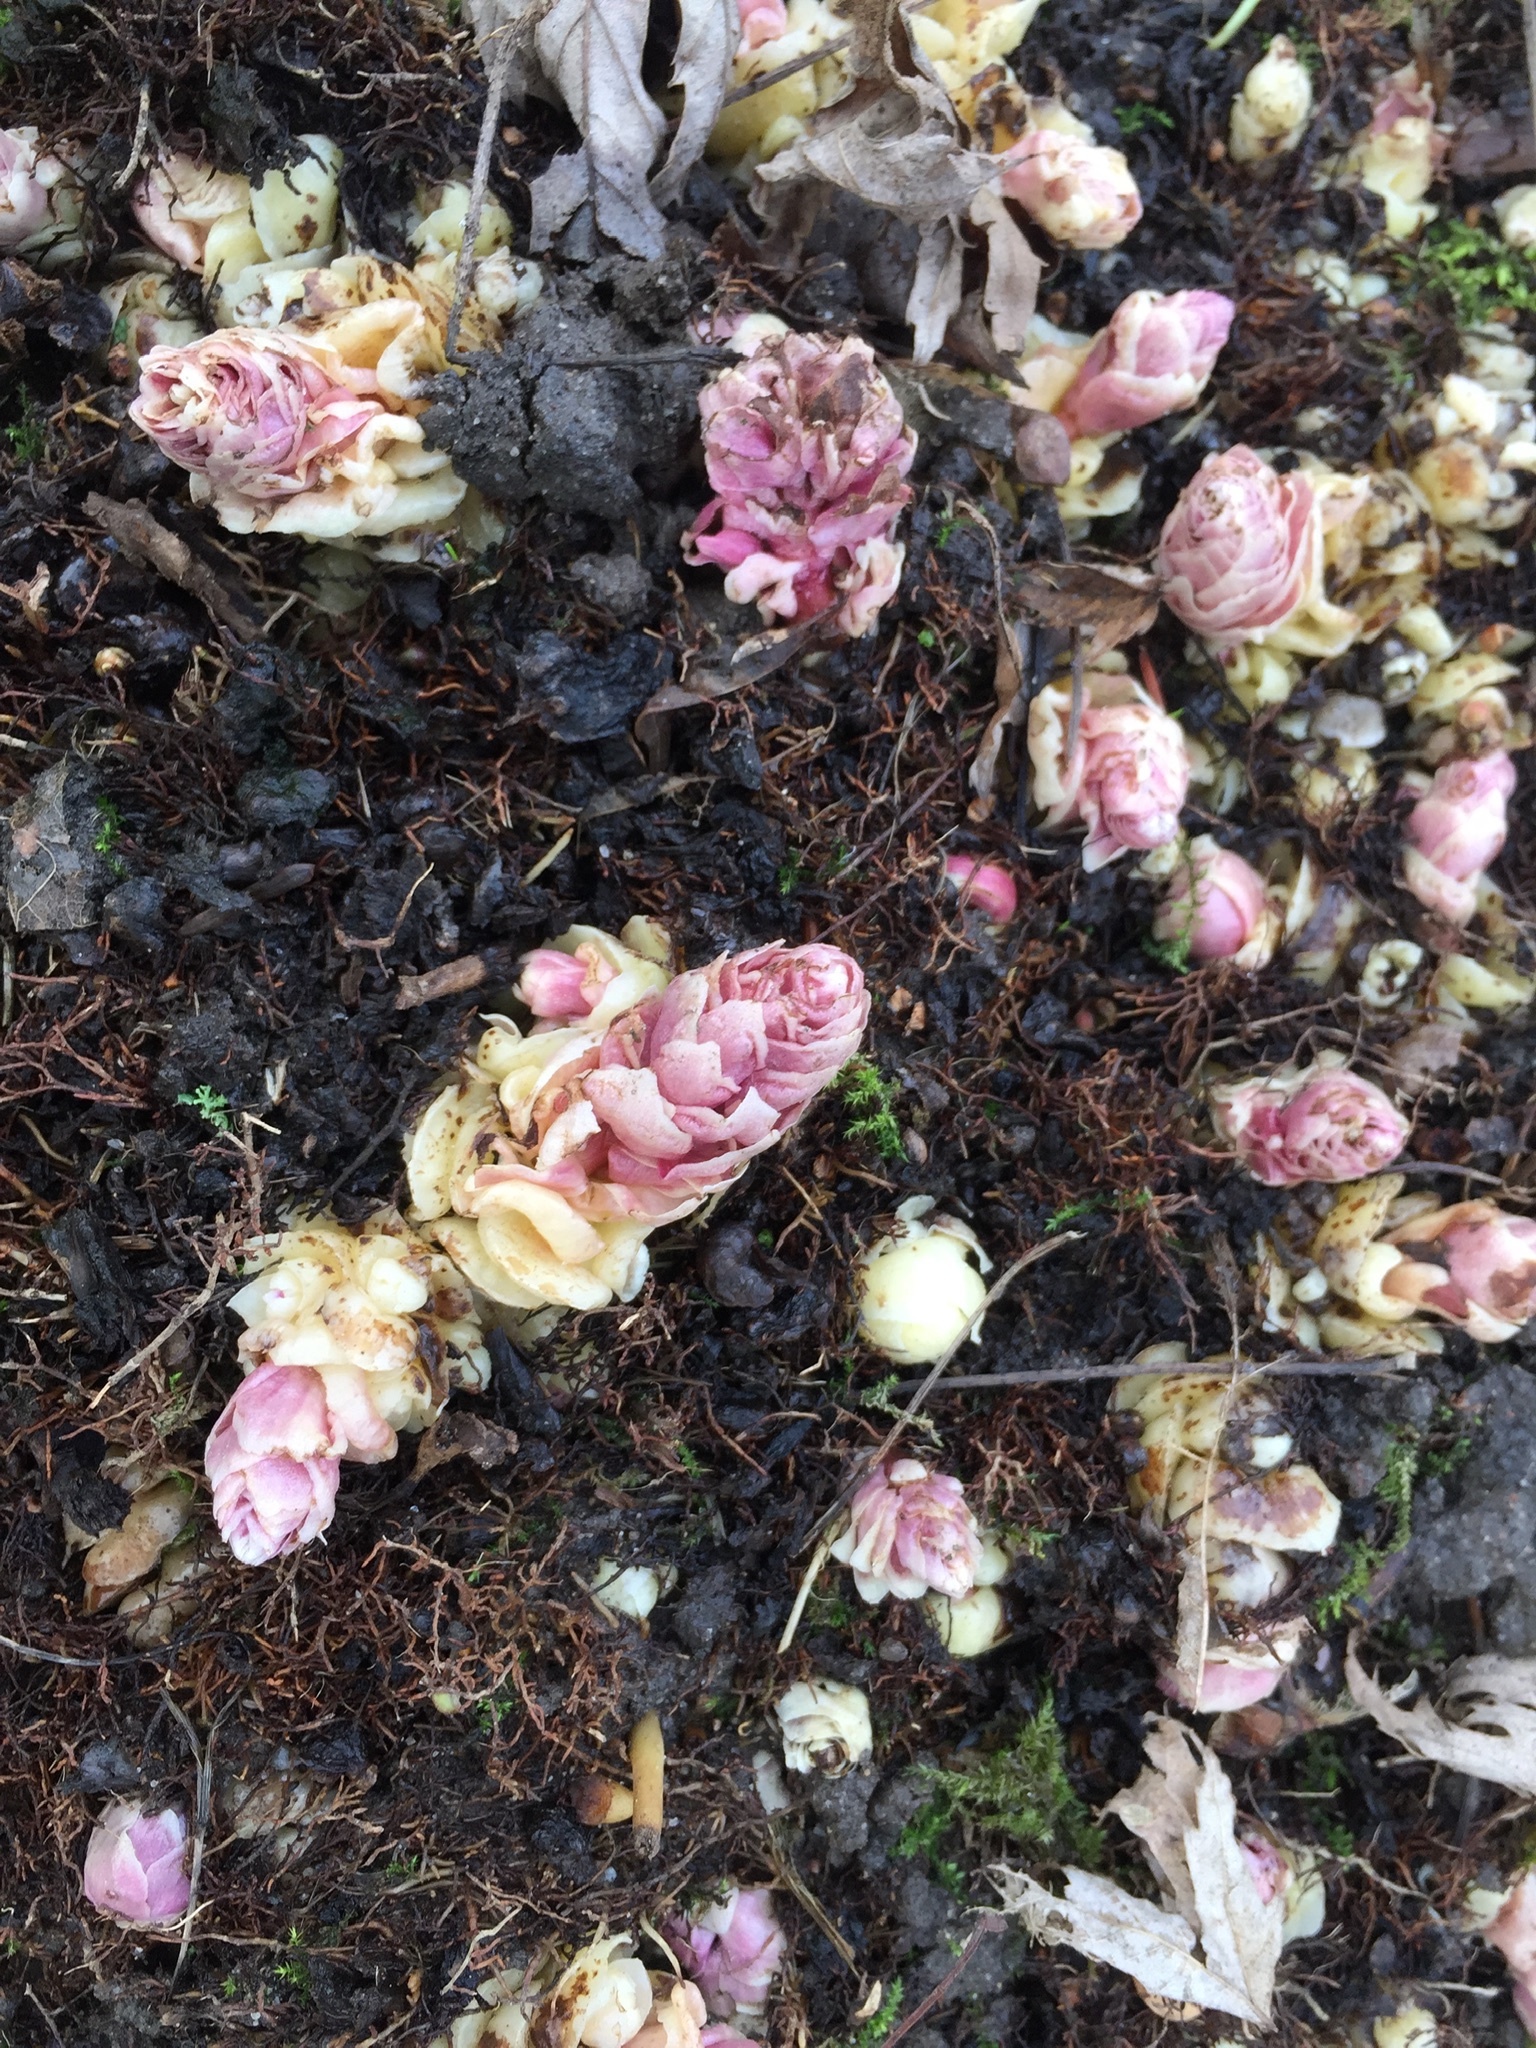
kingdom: Plantae
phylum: Tracheophyta
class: Magnoliopsida
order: Lamiales
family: Orobanchaceae
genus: Lathraea
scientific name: Lathraea squamaria
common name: Toothwort
